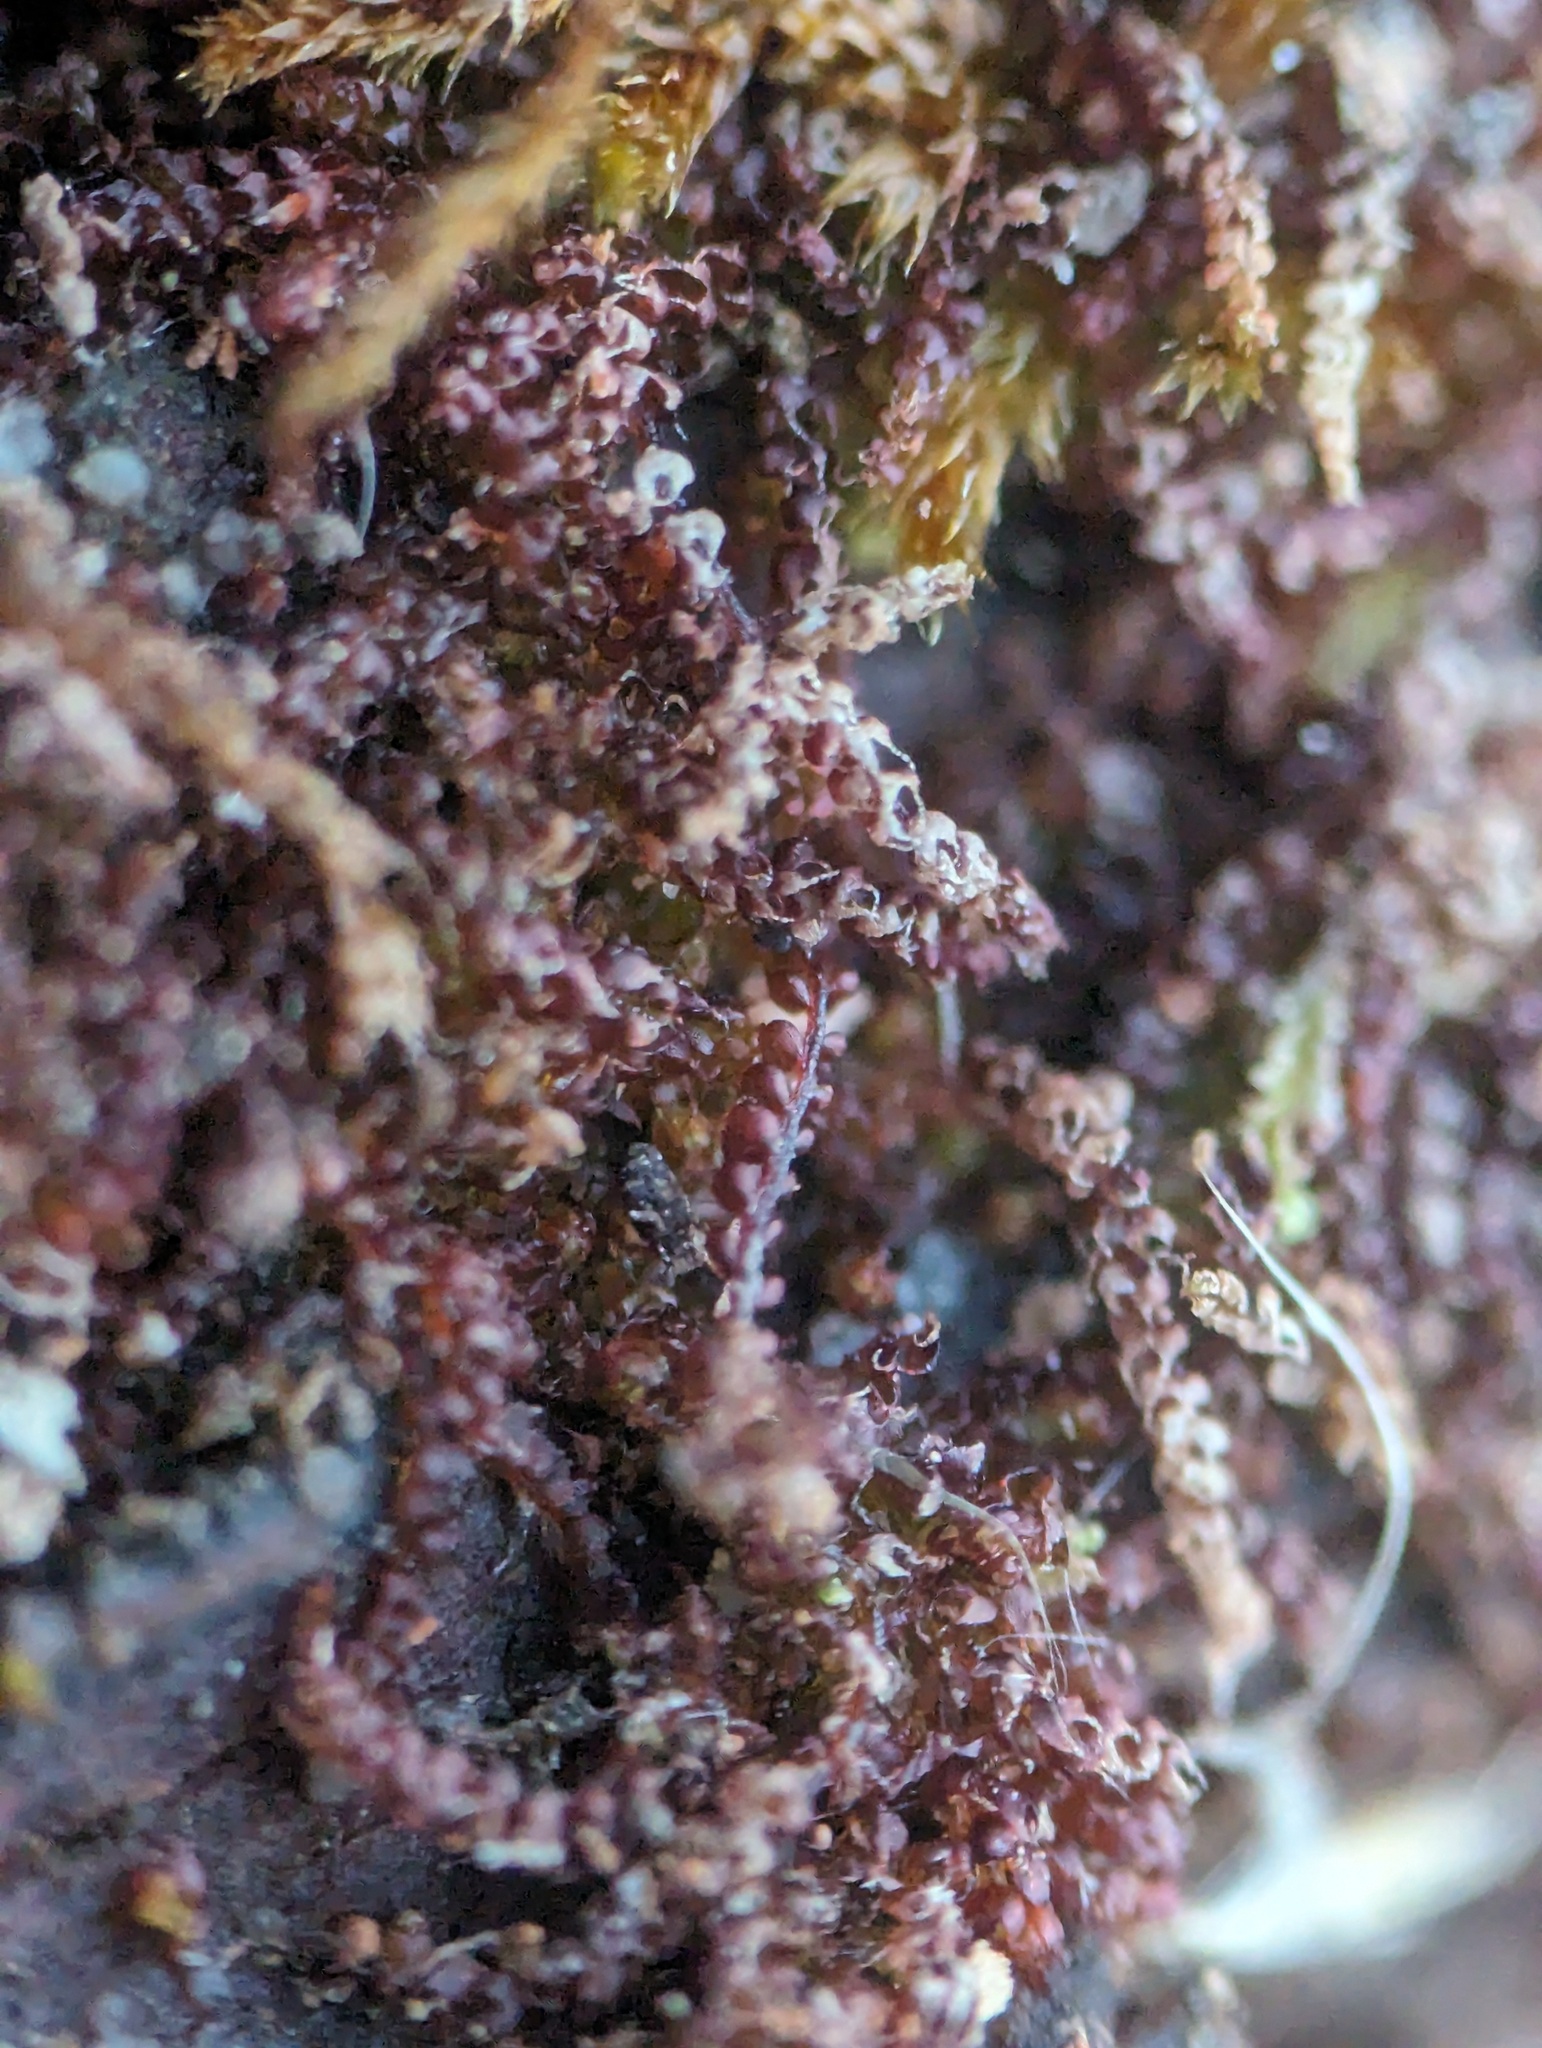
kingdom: Plantae
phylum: Marchantiophyta
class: Jungermanniopsida
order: Jungermanniales
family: Cephaloziaceae
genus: Nowellia
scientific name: Nowellia curvifolia
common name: Wood rustwort
